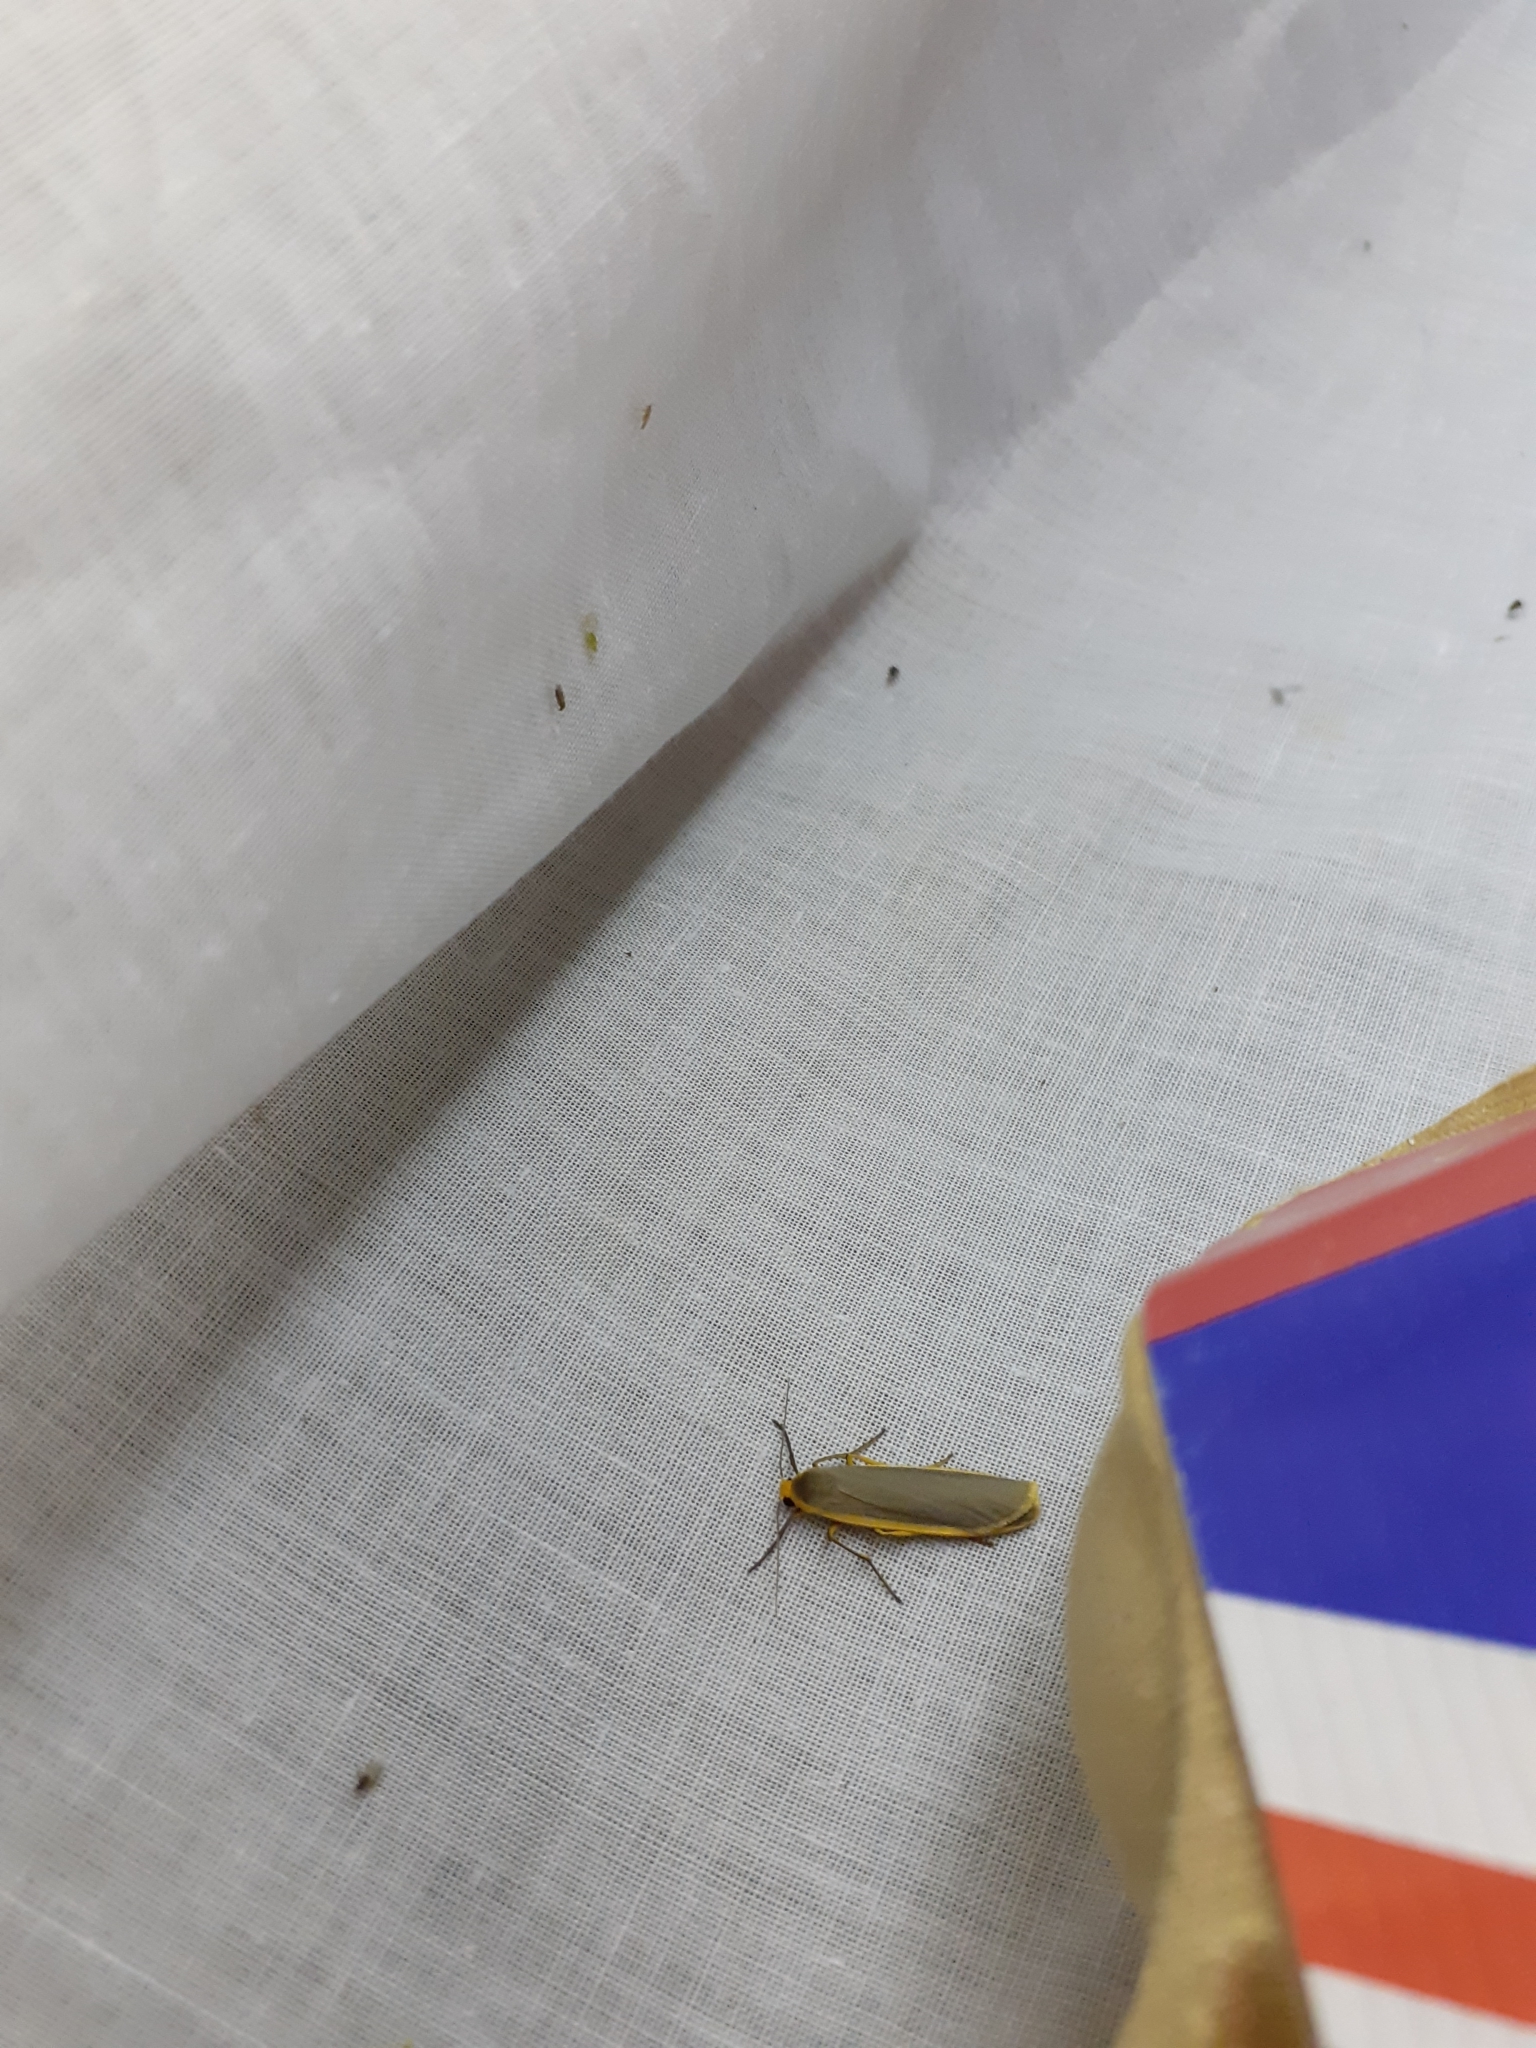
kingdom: Animalia
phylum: Arthropoda
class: Insecta
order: Lepidoptera
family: Erebidae
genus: Nyea
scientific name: Nyea lurideola
